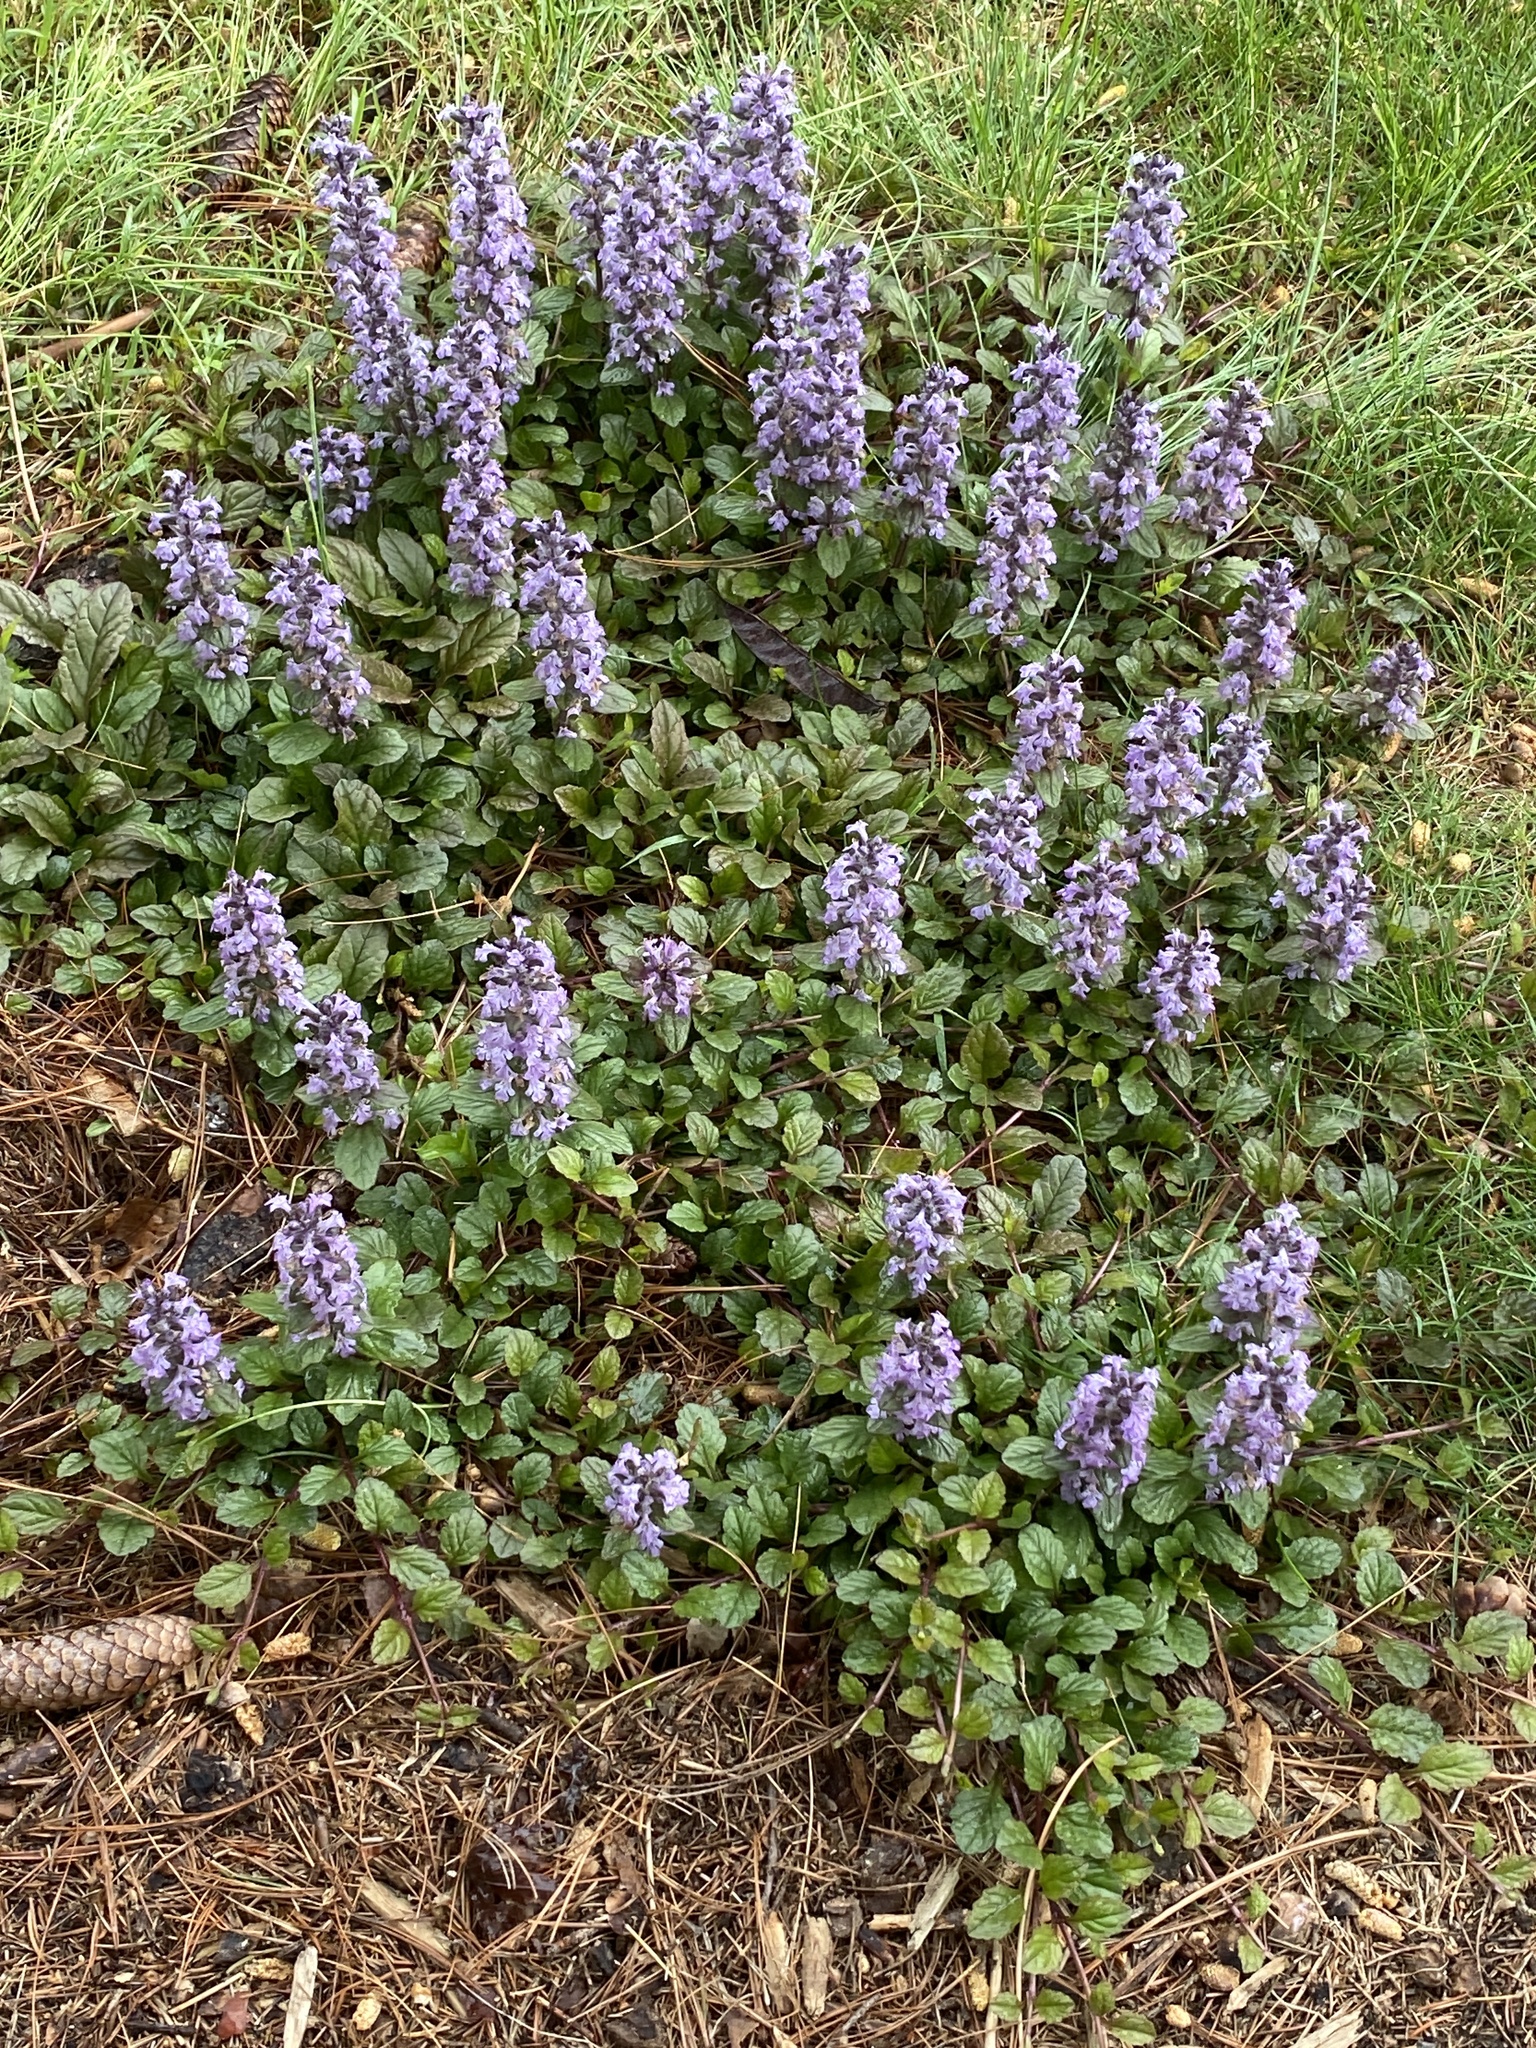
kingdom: Plantae
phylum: Tracheophyta
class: Magnoliopsida
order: Lamiales
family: Lamiaceae
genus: Ajuga
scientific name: Ajuga reptans
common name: Bugle
